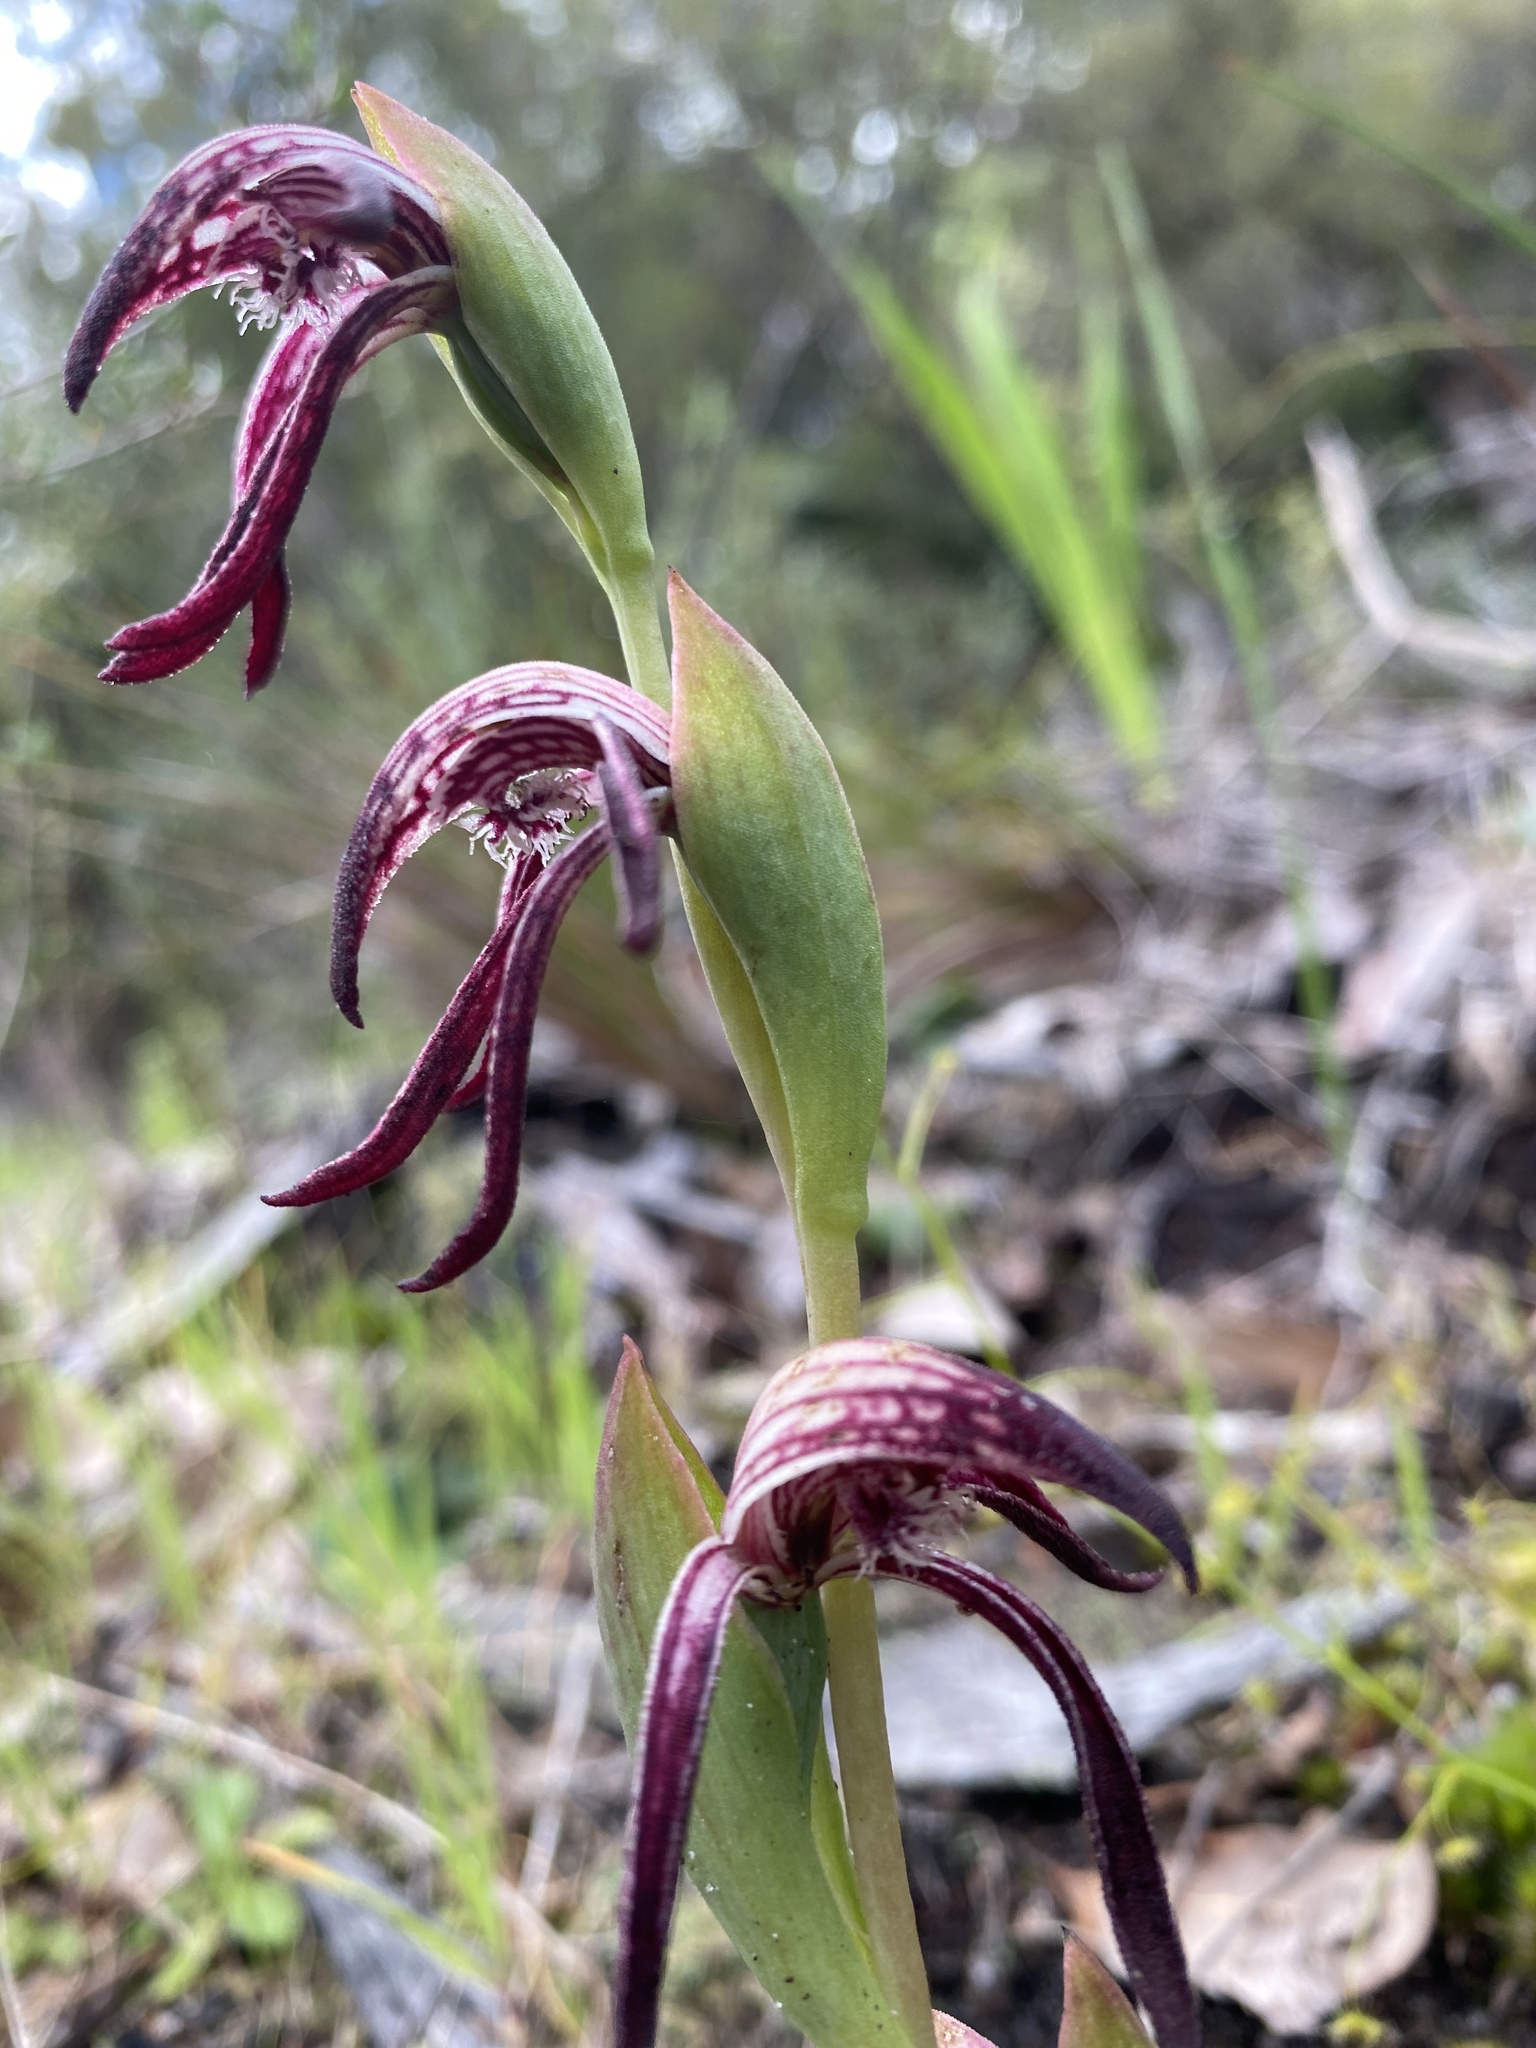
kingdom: Plantae
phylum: Tracheophyta
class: Liliopsida
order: Asparagales
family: Orchidaceae
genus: Pyrorchis
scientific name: Pyrorchis nigricans
